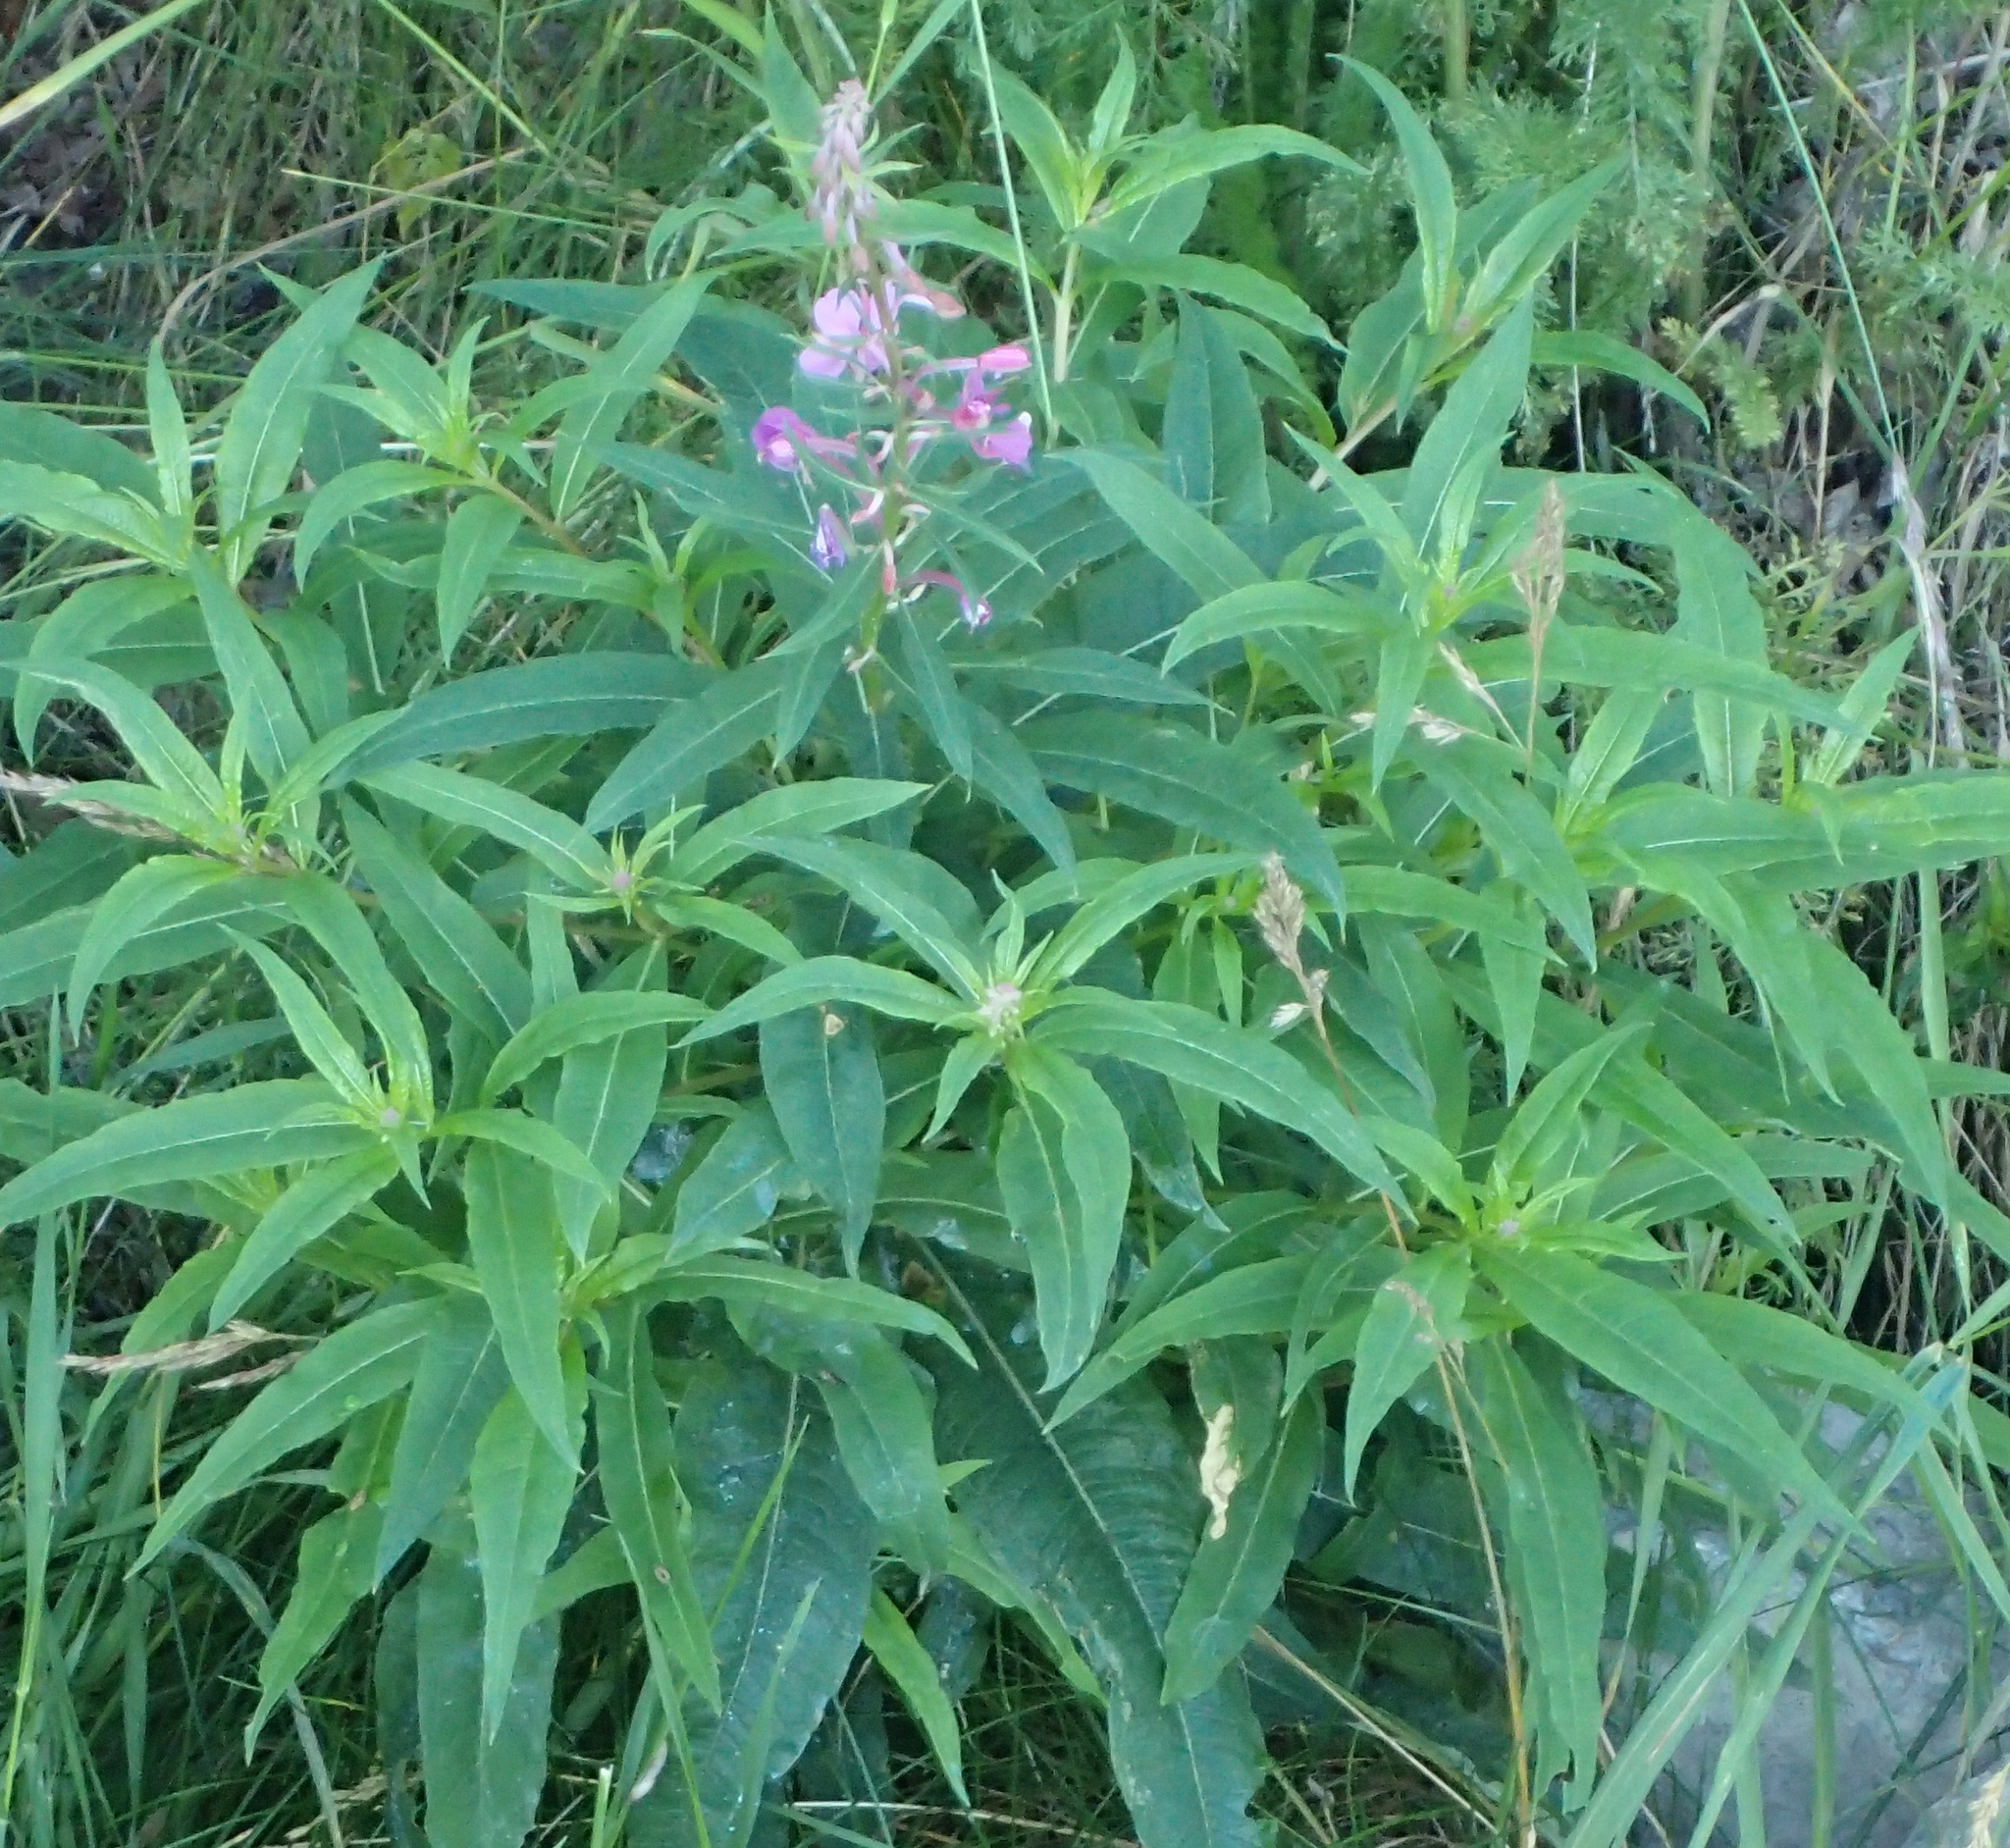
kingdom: Plantae
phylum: Tracheophyta
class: Magnoliopsida
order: Myrtales
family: Onagraceae
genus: Chamaenerion
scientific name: Chamaenerion angustifolium
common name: Fireweed
